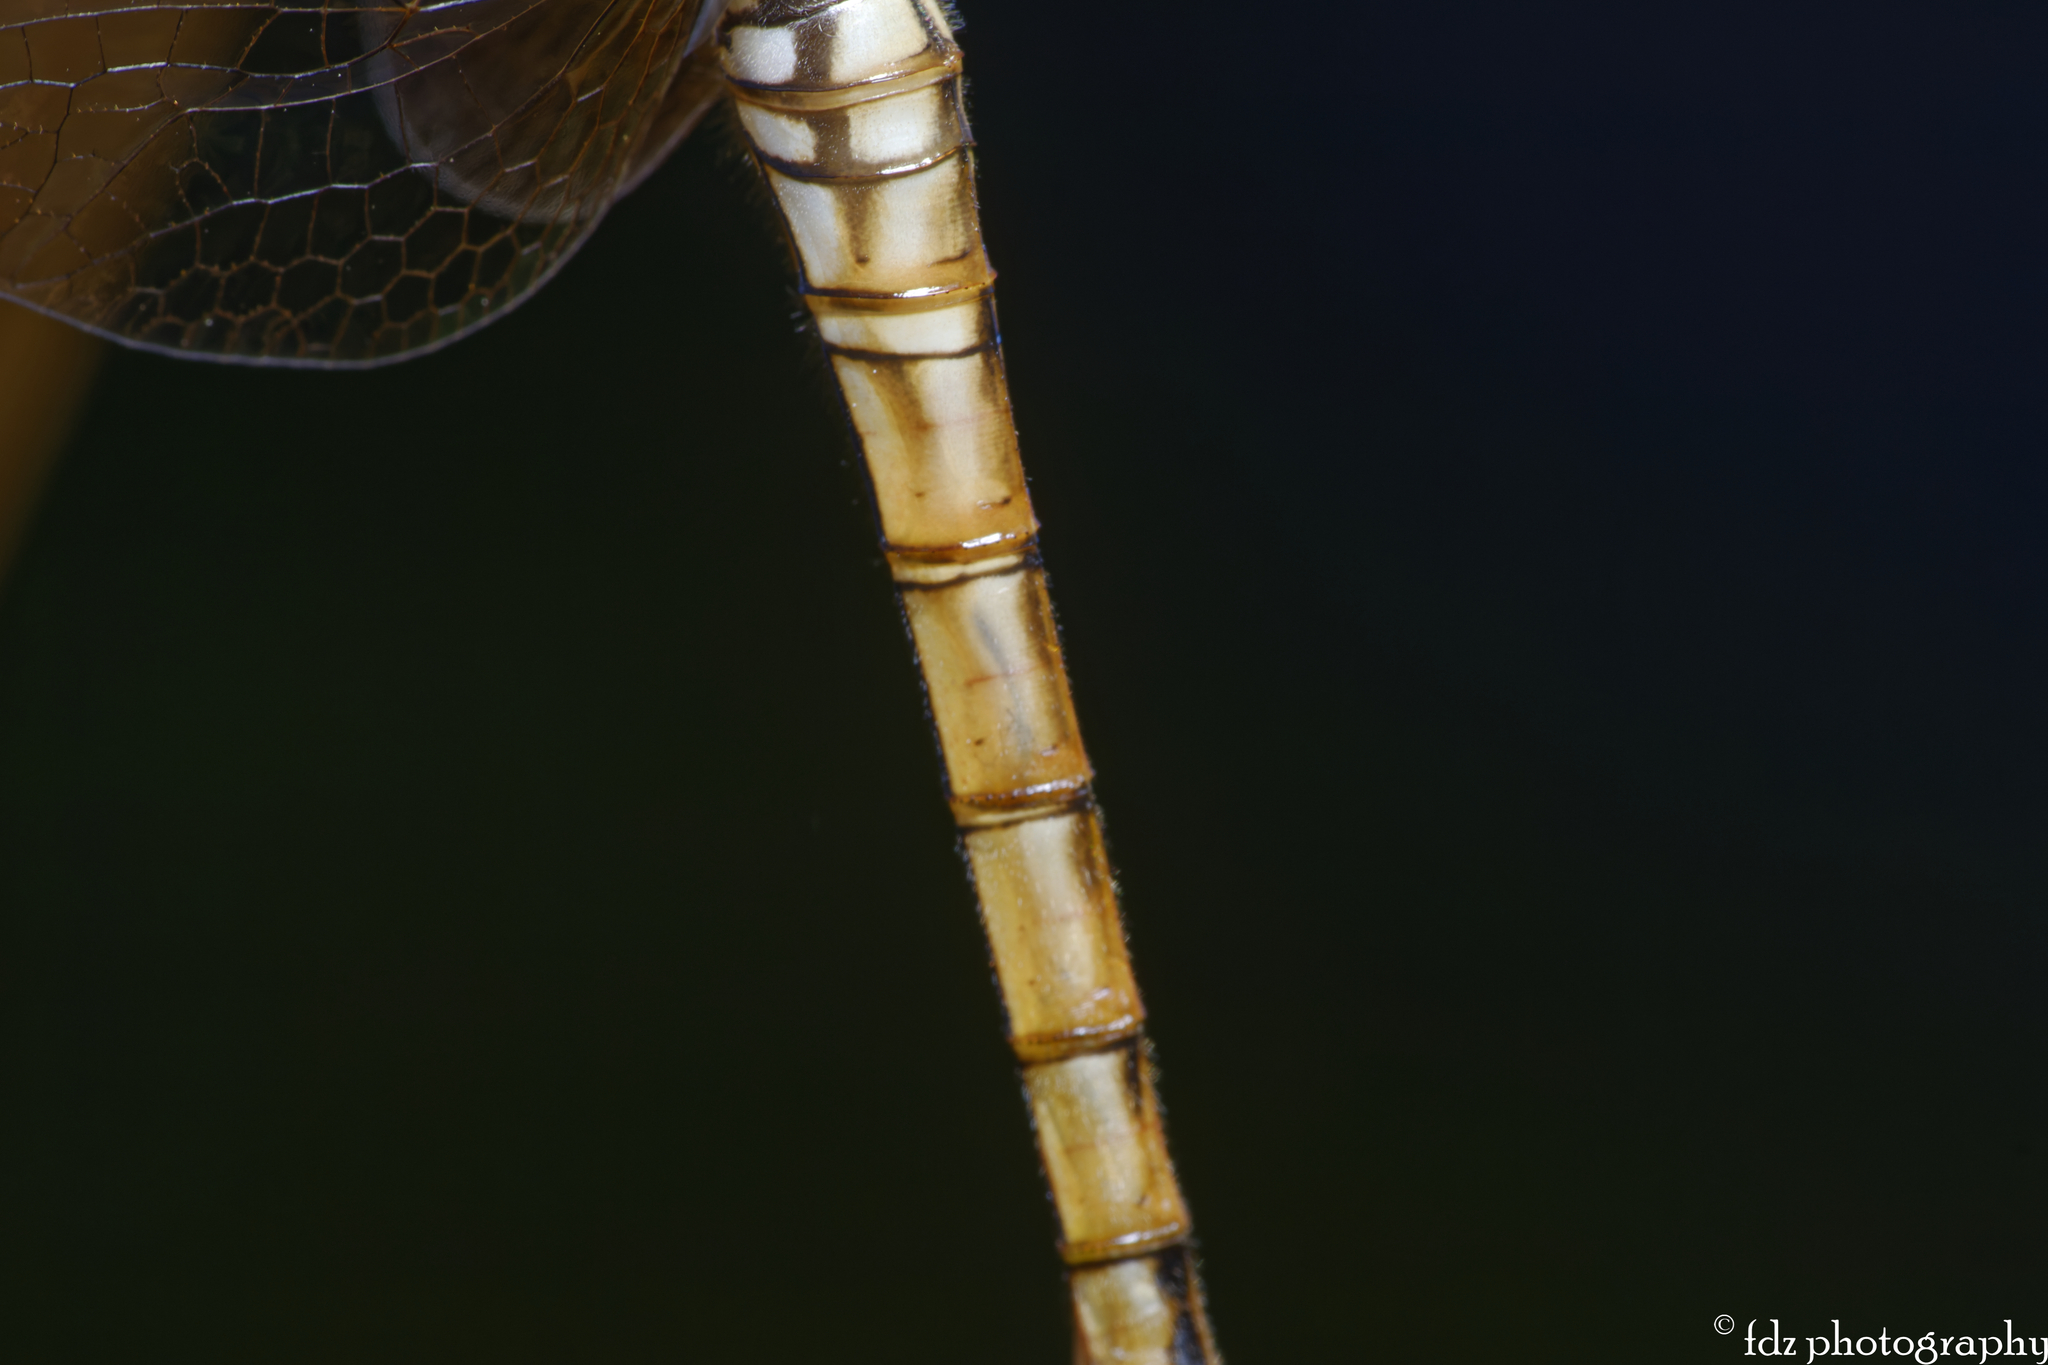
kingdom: Animalia
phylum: Arthropoda
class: Insecta
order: Odonata
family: Libellulidae
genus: Trithemis
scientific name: Trithemis annulata
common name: Violet dropwing
